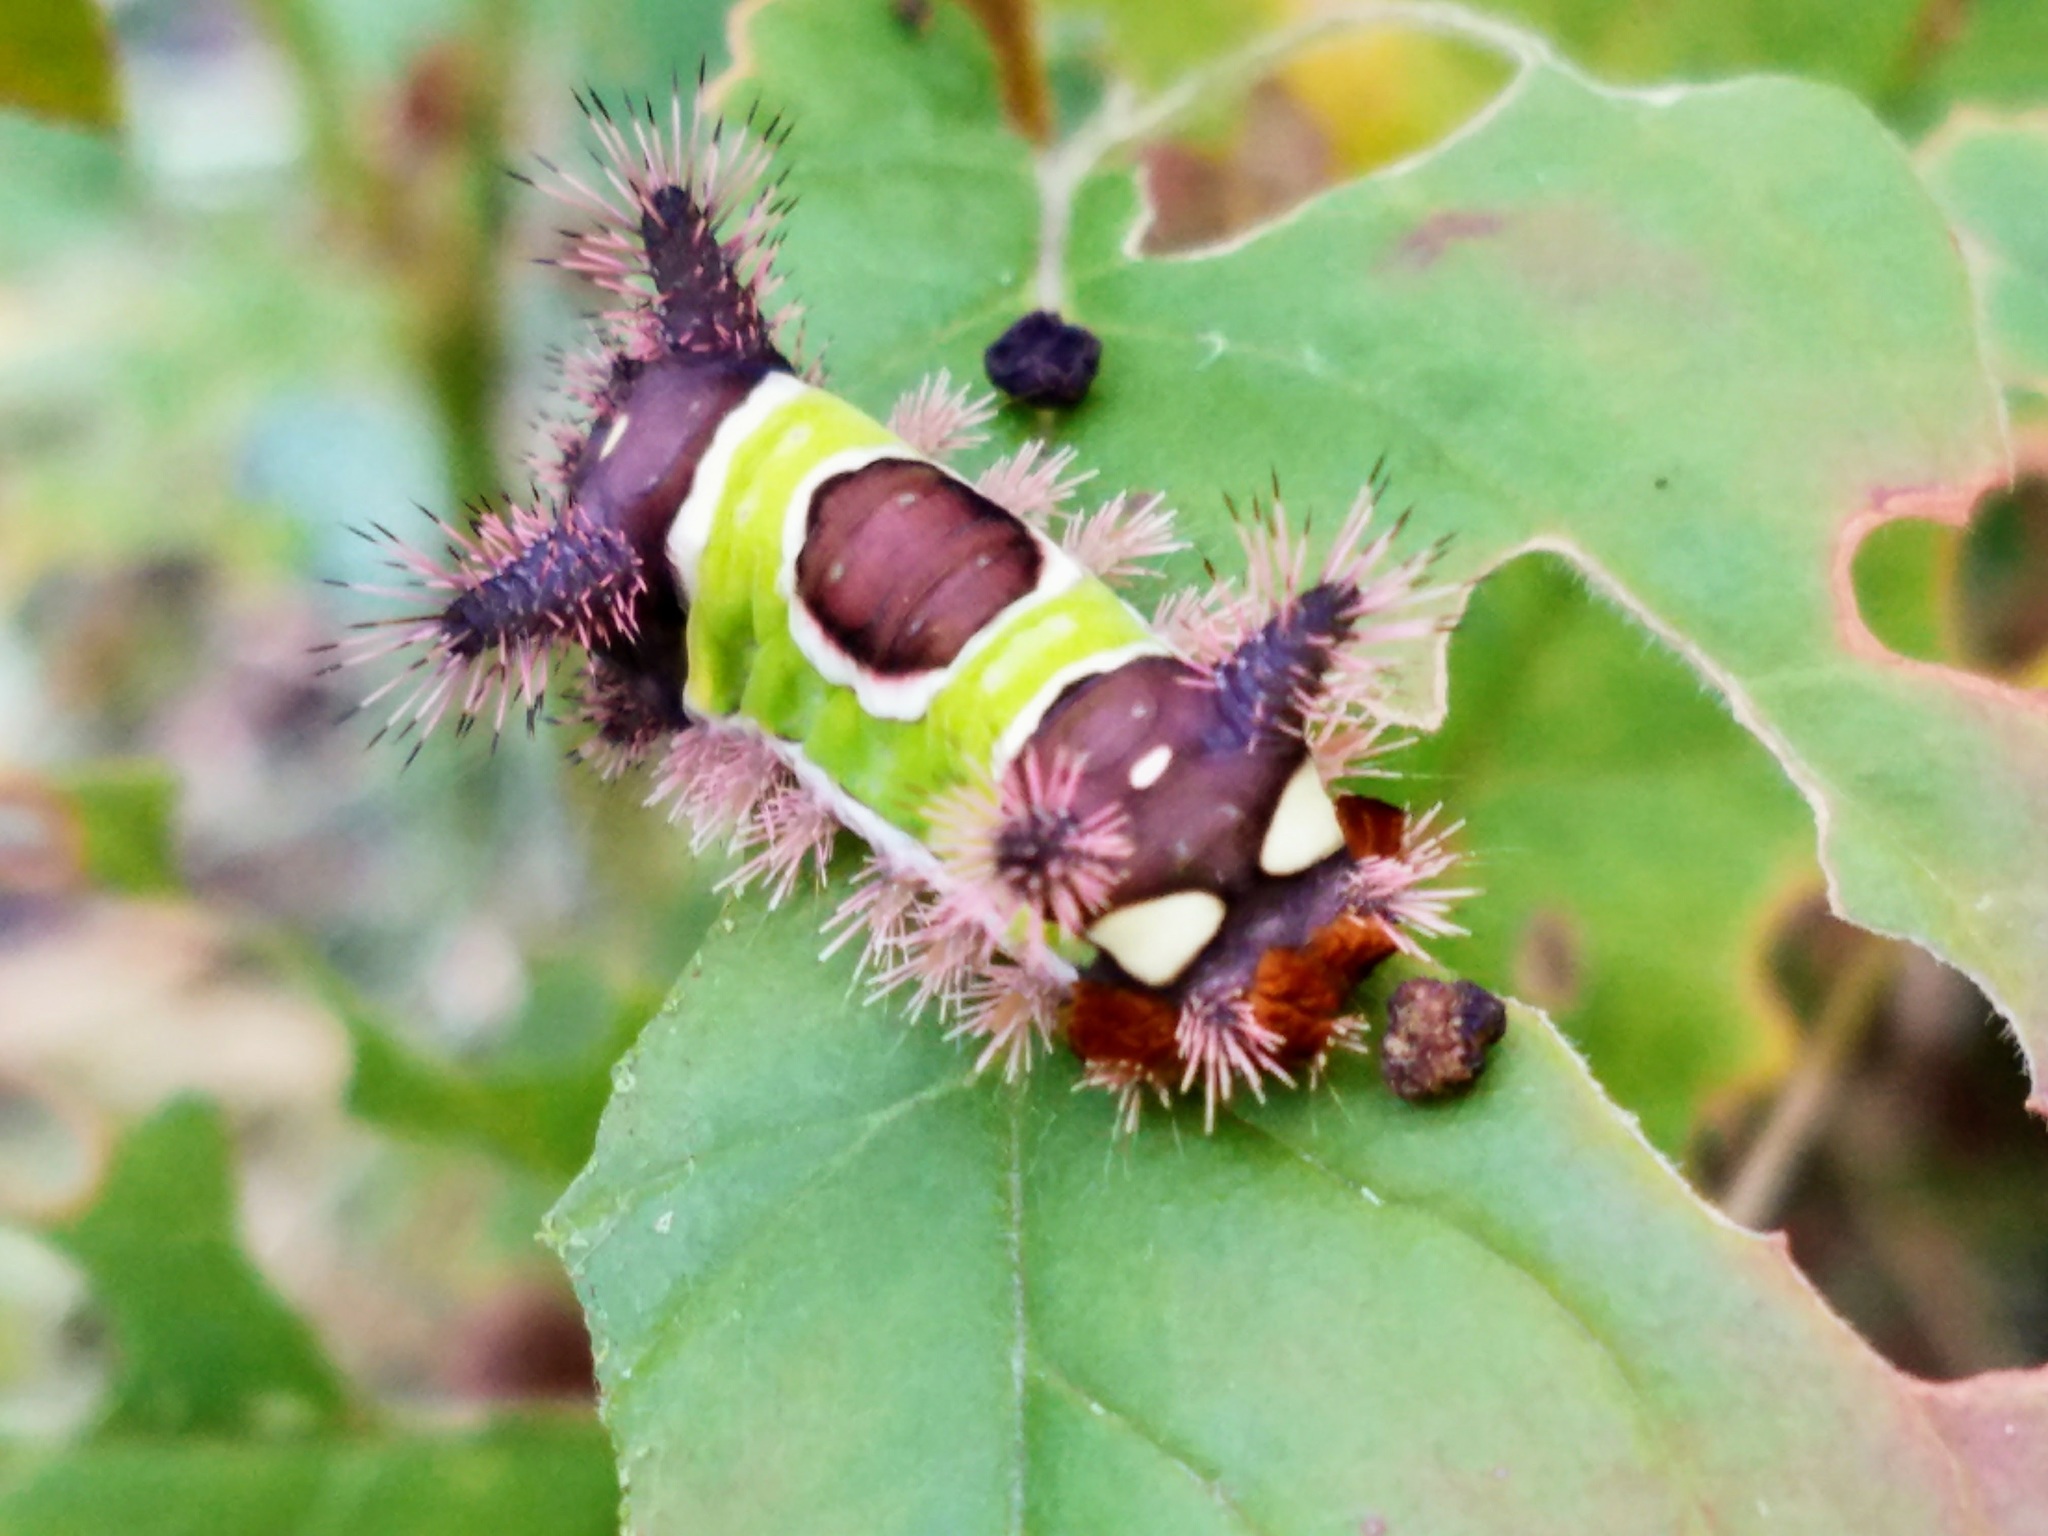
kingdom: Animalia
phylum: Arthropoda
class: Insecta
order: Lepidoptera
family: Limacodidae
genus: Acharia
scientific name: Acharia stimulea
